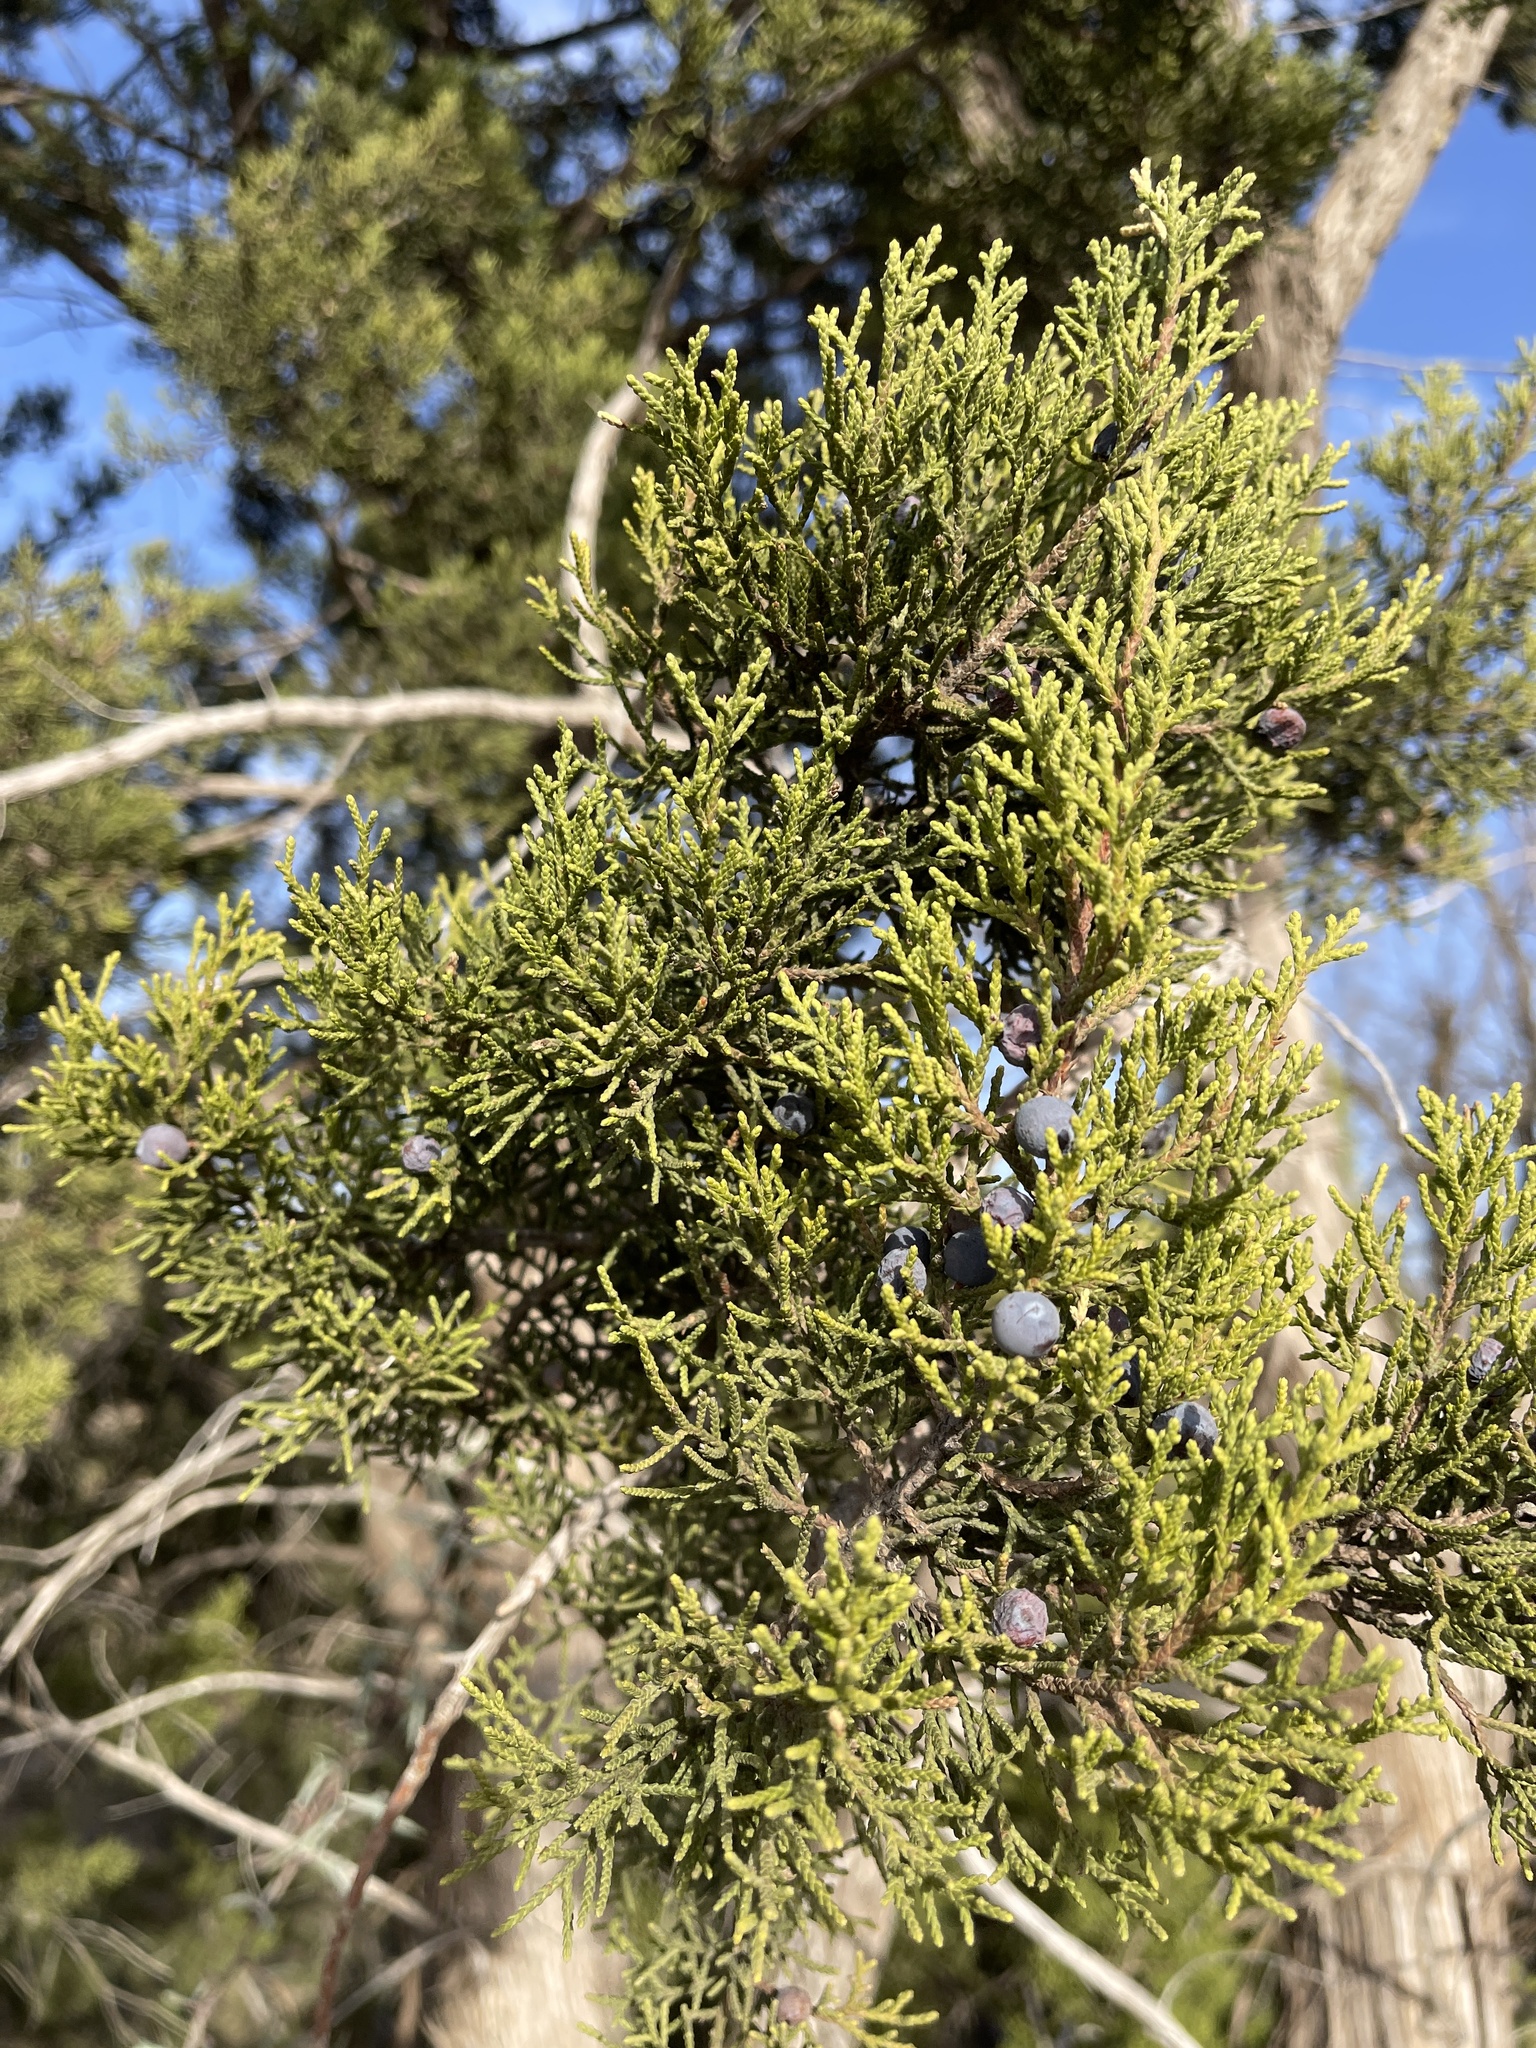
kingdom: Plantae
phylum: Tracheophyta
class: Pinopsida
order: Pinales
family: Cupressaceae
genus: Juniperus
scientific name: Juniperus ashei
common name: Mexican juniper
